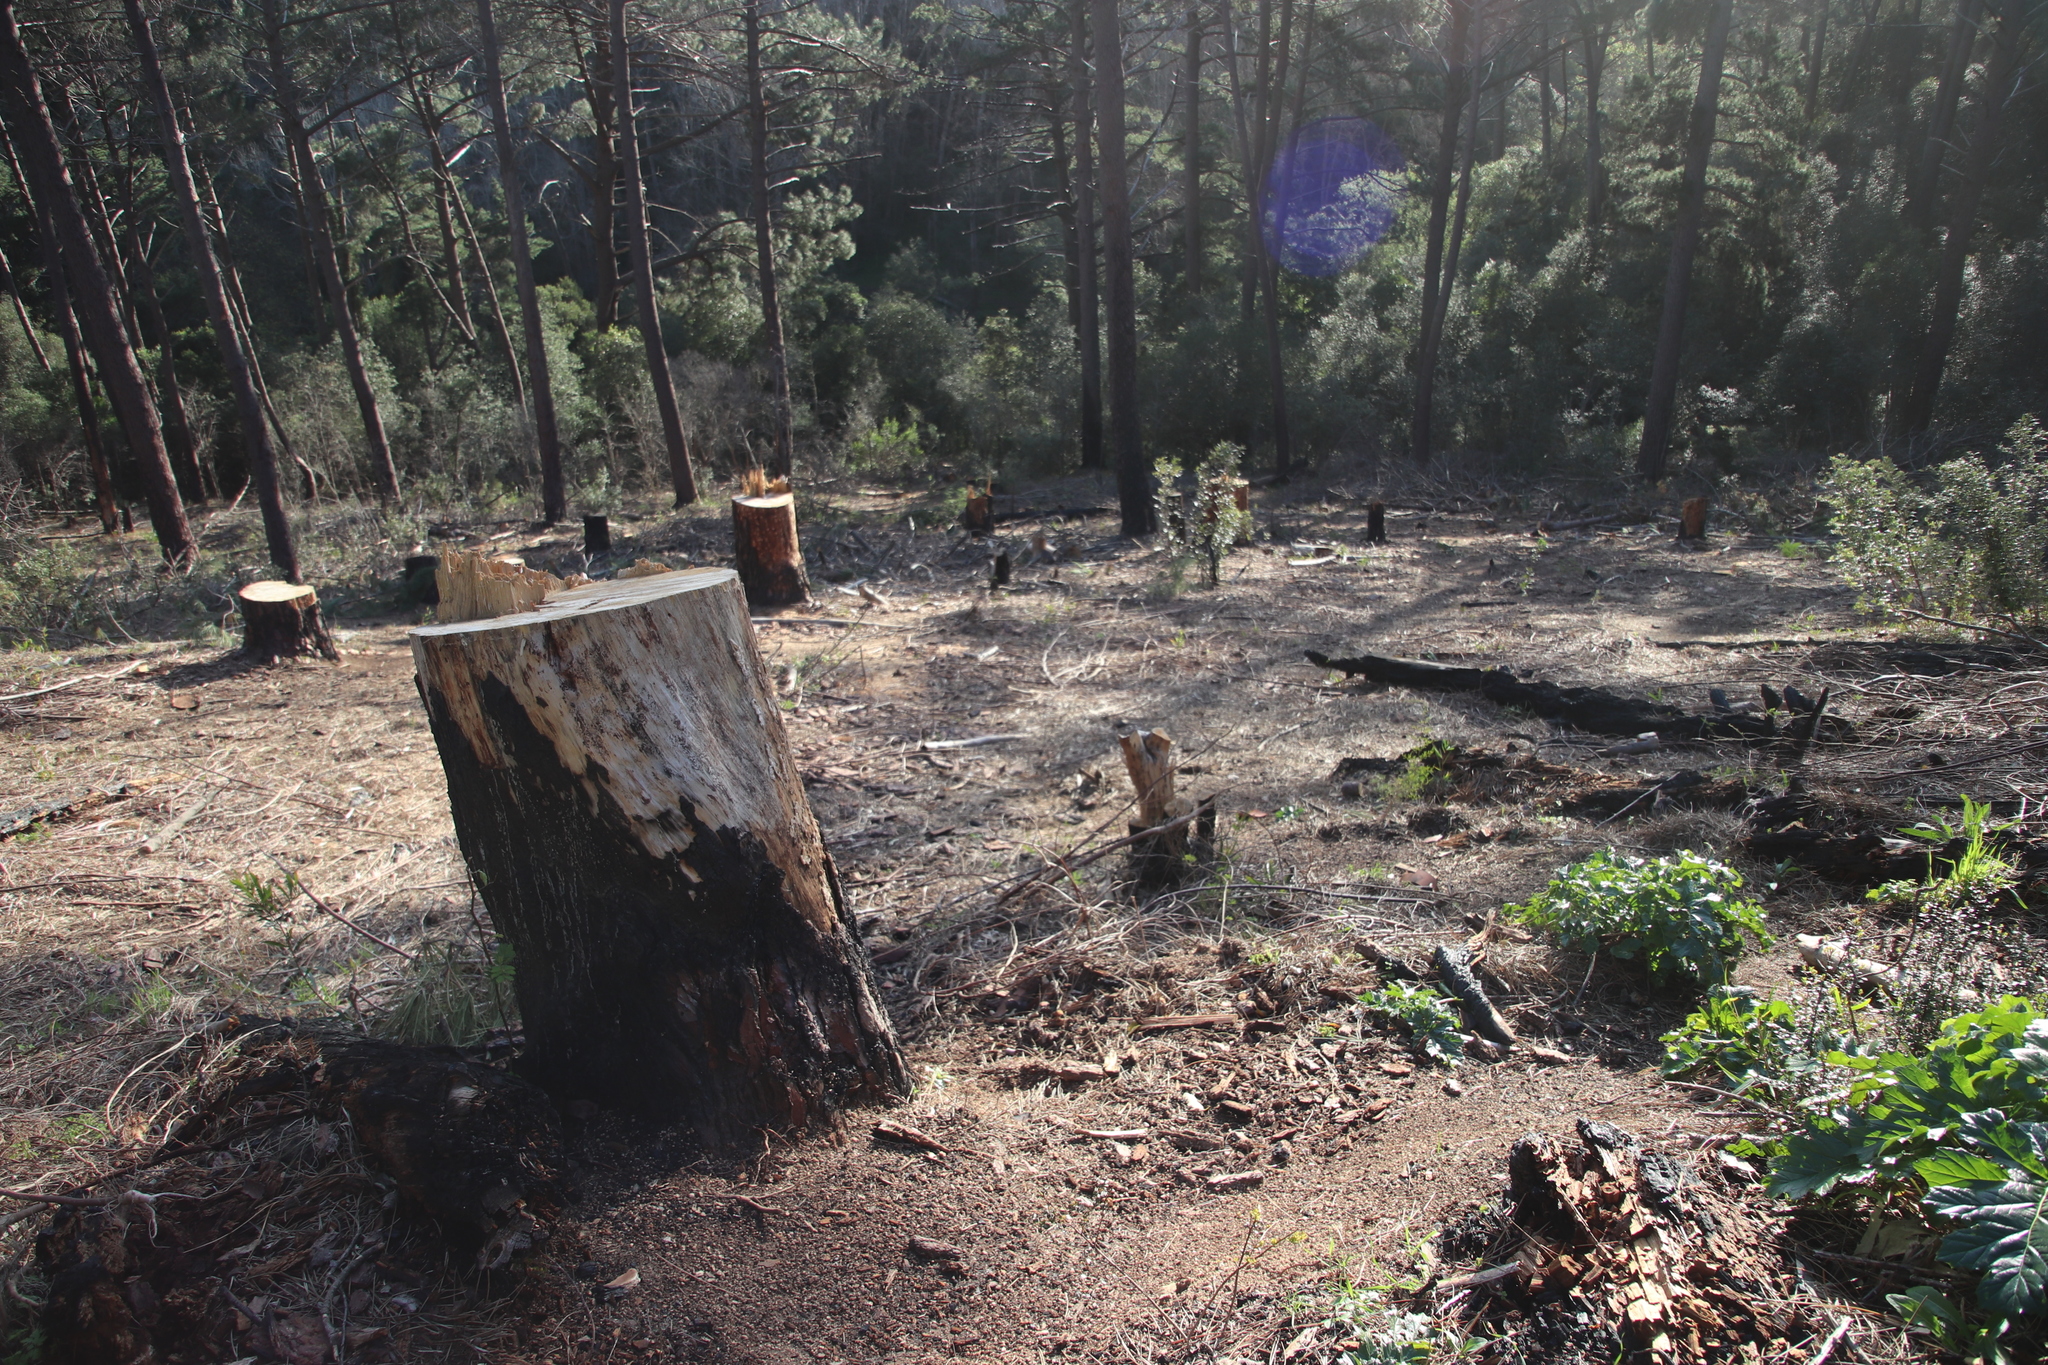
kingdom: Plantae
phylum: Tracheophyta
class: Pinopsida
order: Pinales
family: Pinaceae
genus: Pinus
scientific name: Pinus pinaster
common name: Maritime pine
